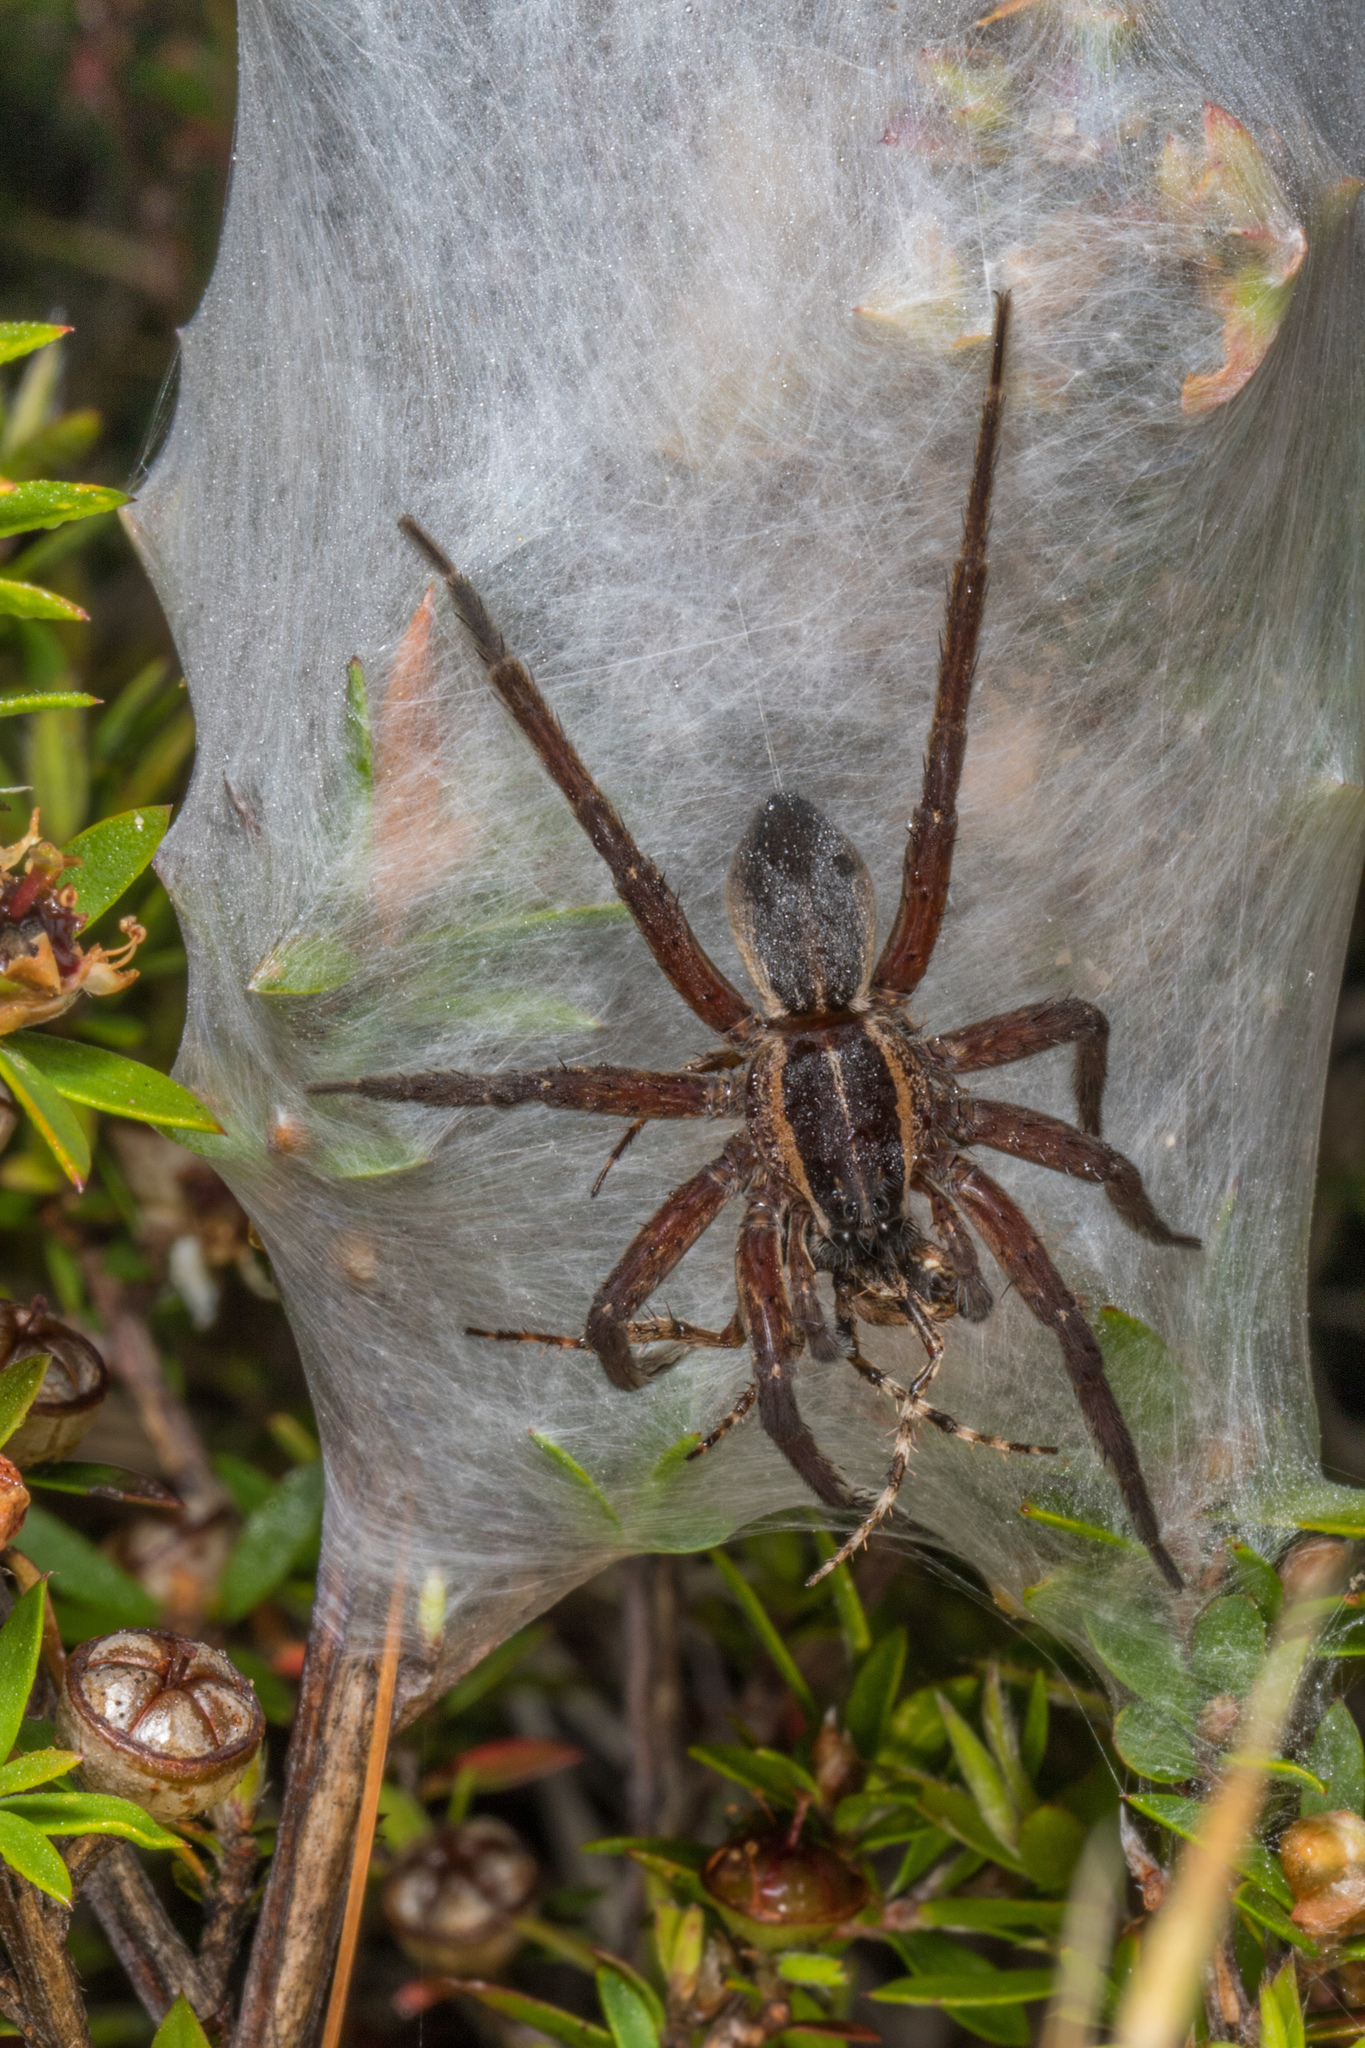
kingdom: Animalia
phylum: Arthropoda
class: Arachnida
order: Araneae
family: Pisauridae
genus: Dolomedes
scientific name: Dolomedes minor
